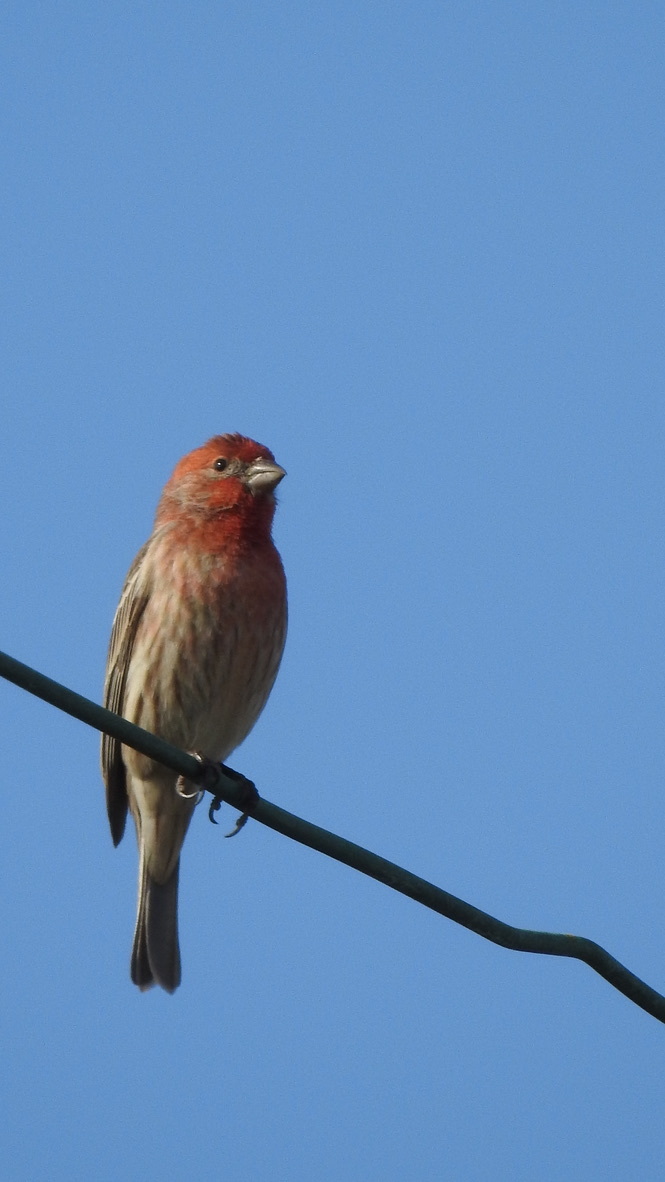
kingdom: Animalia
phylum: Chordata
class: Aves
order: Passeriformes
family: Fringillidae
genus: Haemorhous
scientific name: Haemorhous mexicanus
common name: House finch
